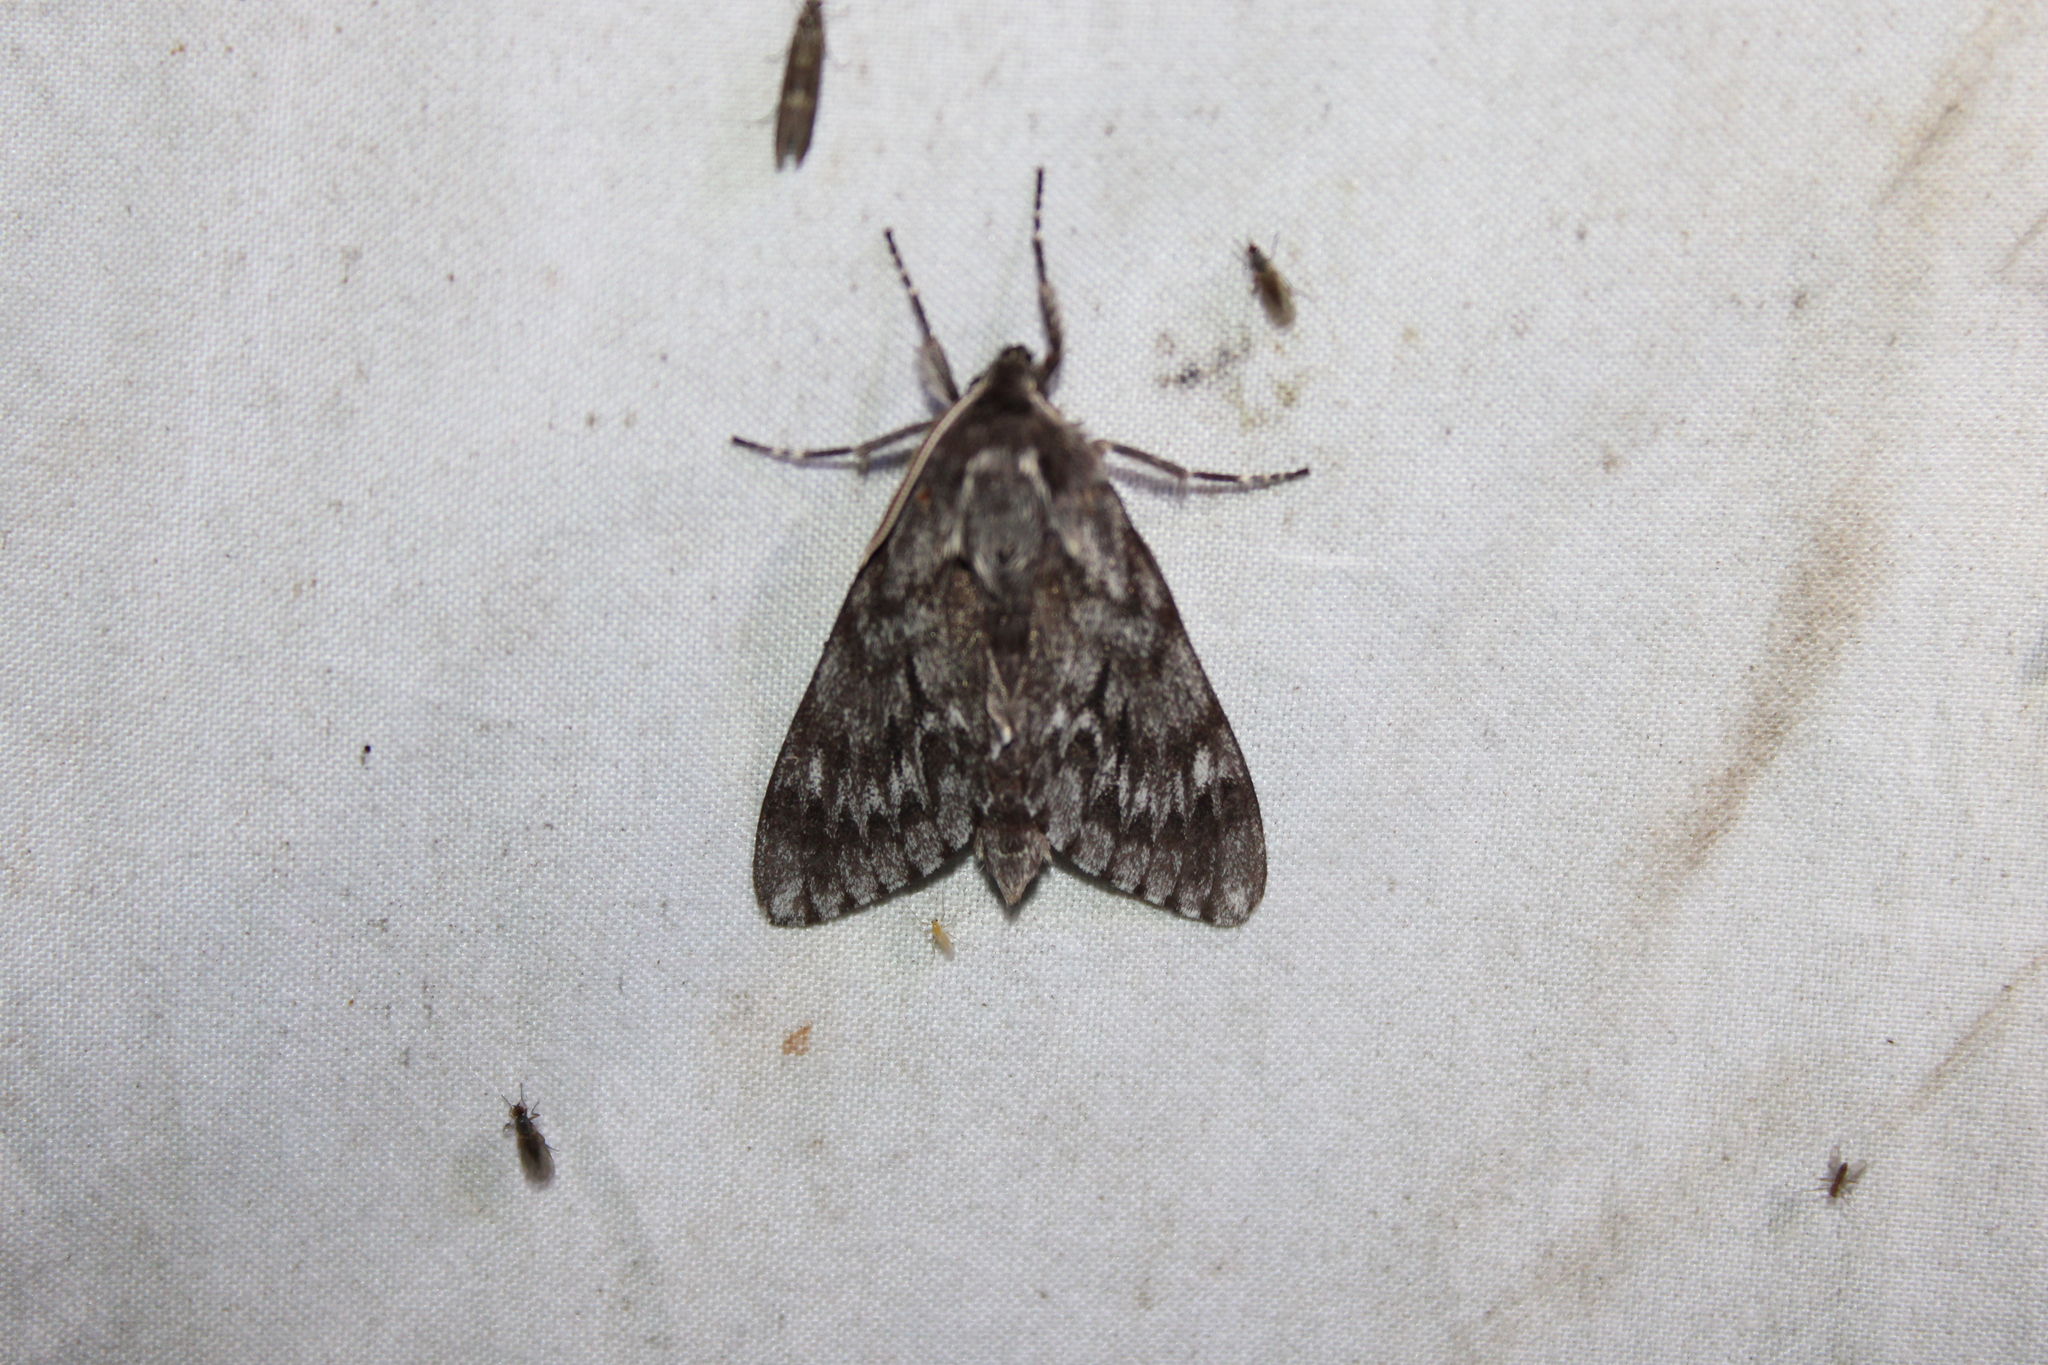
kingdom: Animalia
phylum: Arthropoda
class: Insecta
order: Lepidoptera
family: Sphingidae
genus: Lapara
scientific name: Lapara bombycoides
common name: Northern pine sphinx
